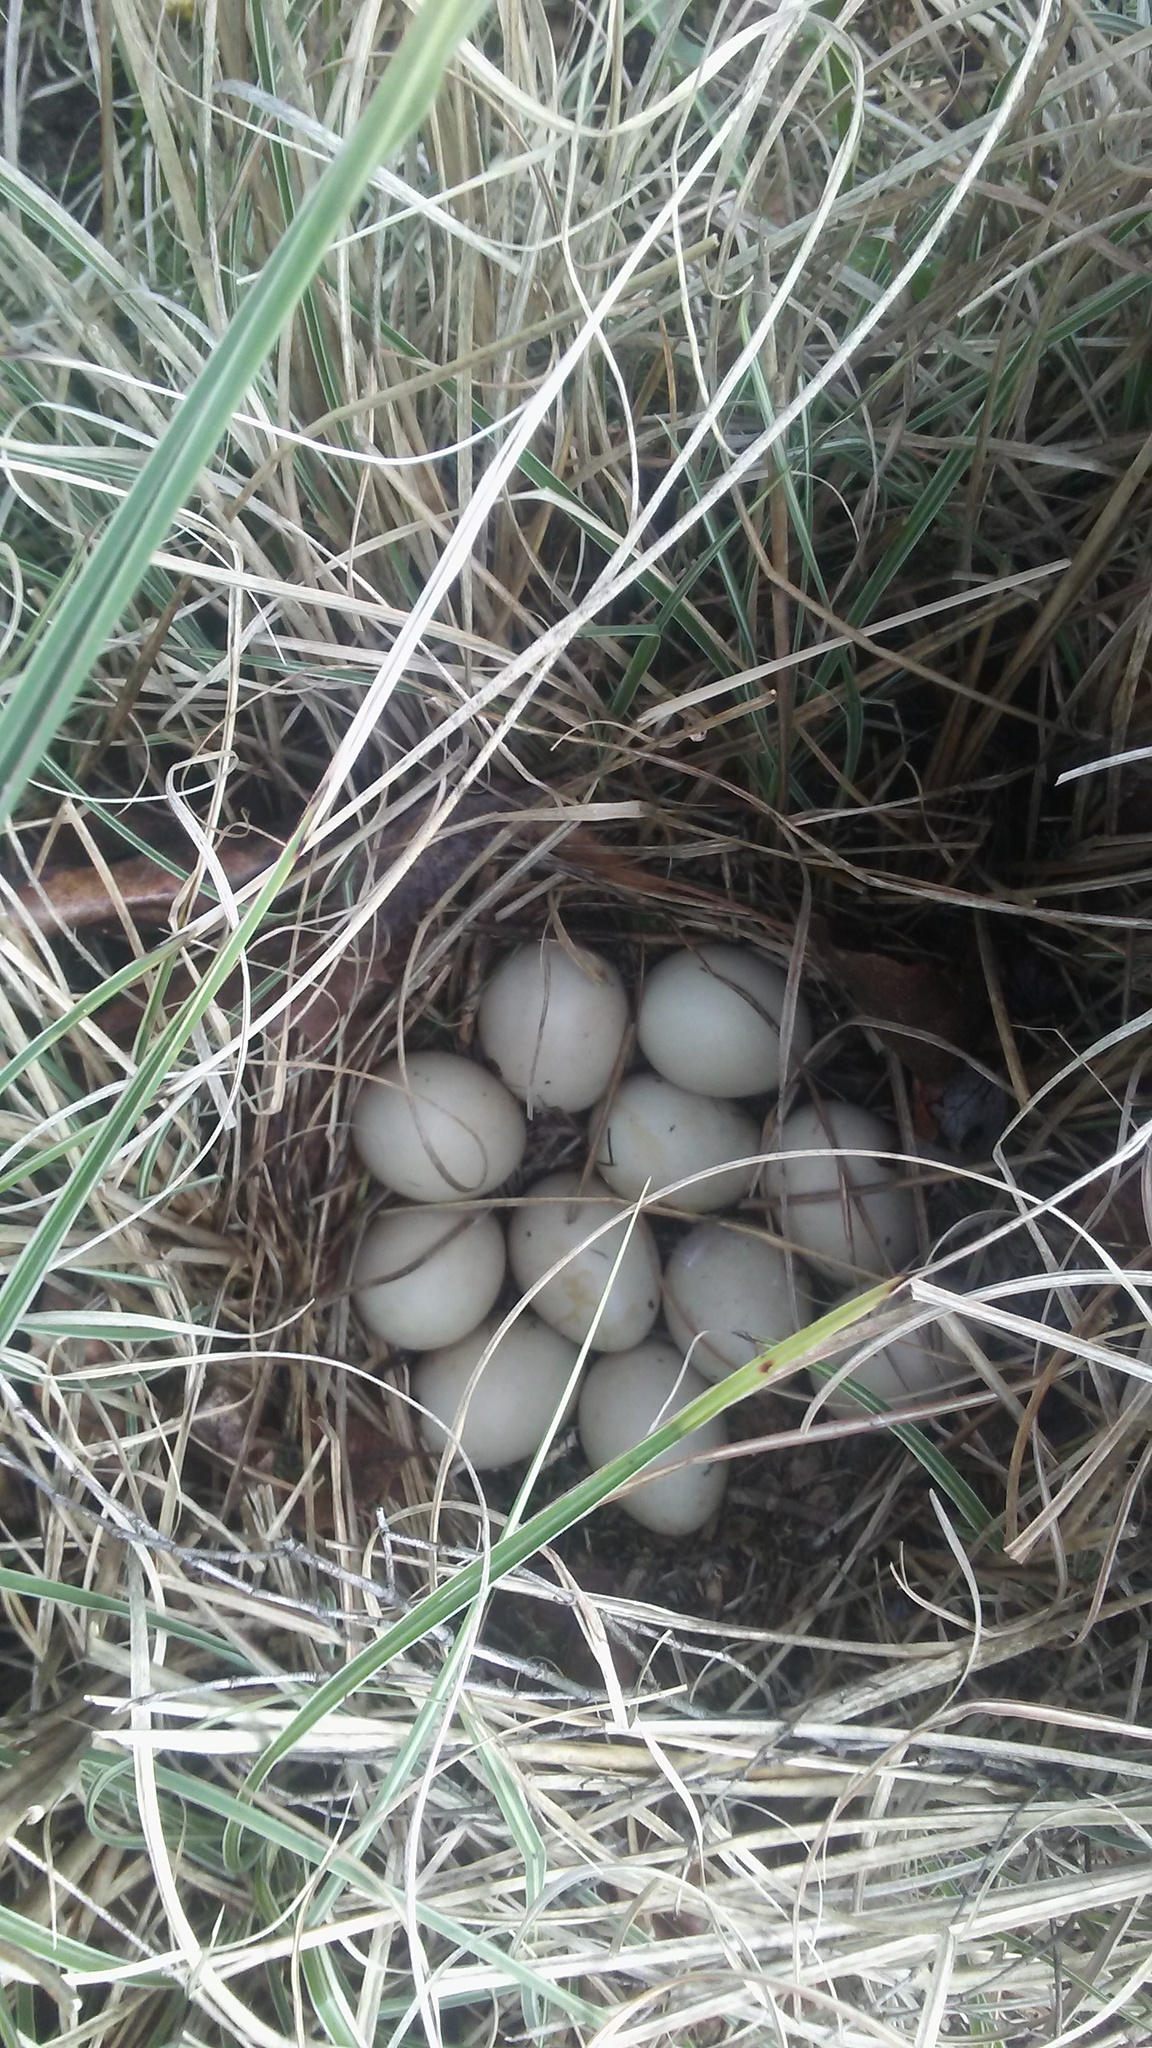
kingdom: Animalia
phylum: Chordata
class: Aves
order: Anseriformes
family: Anatidae
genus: Anas
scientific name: Anas platyrhynchos
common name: Mallard
